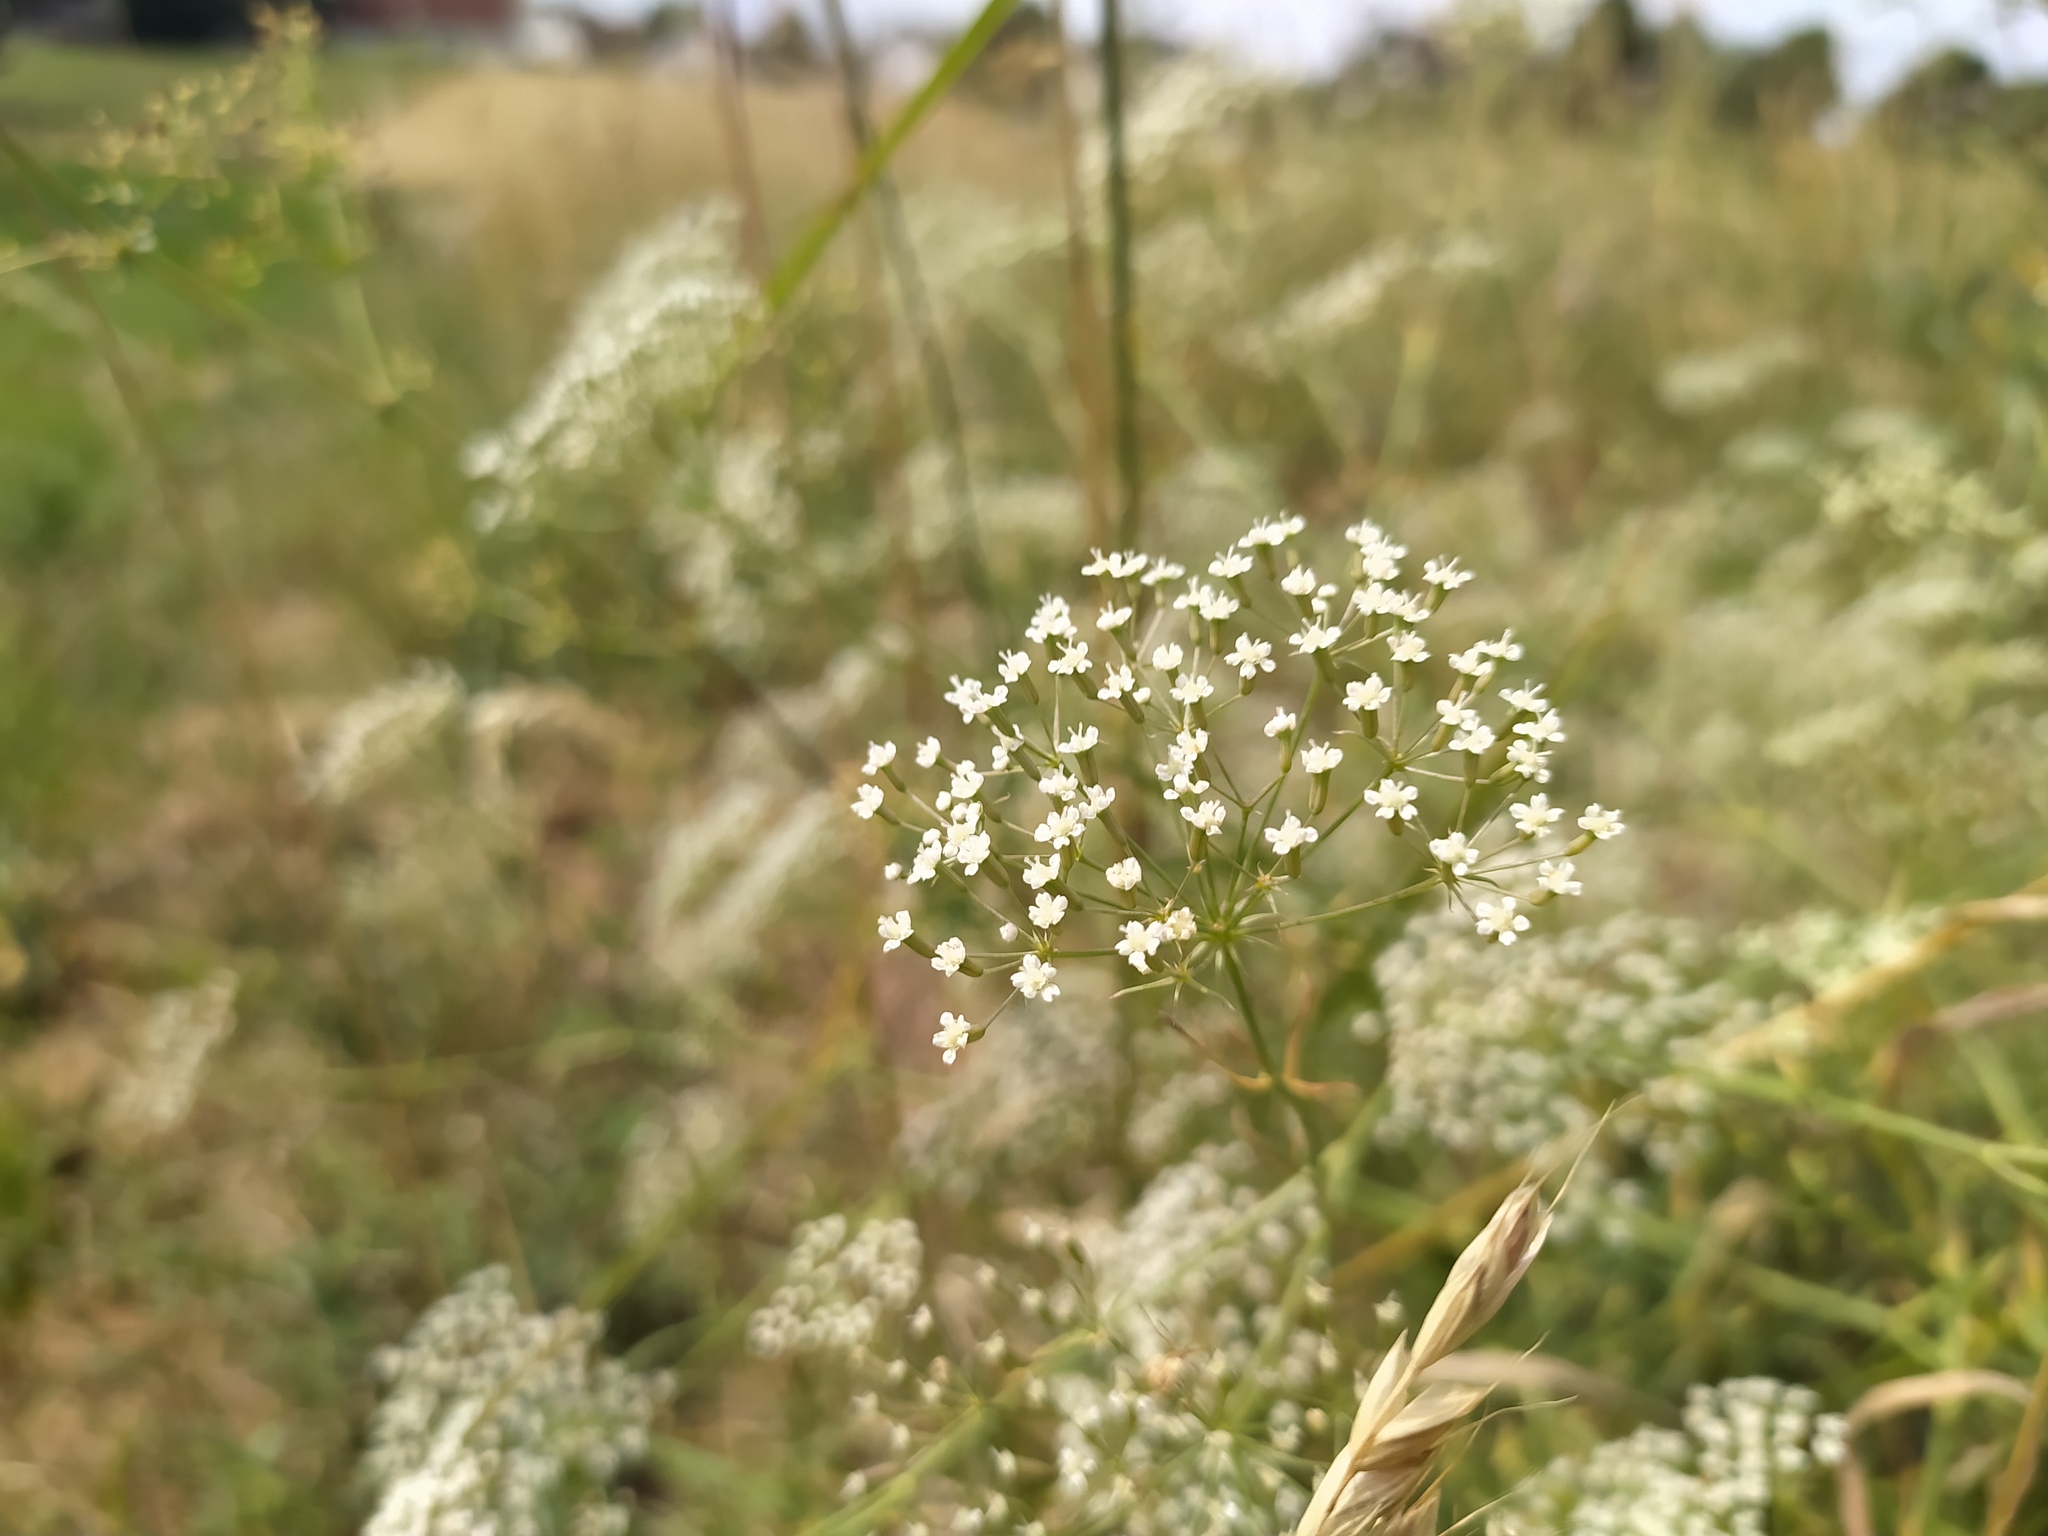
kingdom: Plantae
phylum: Tracheophyta
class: Magnoliopsida
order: Apiales
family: Apiaceae
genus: Falcaria
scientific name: Falcaria vulgaris
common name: Longleaf
